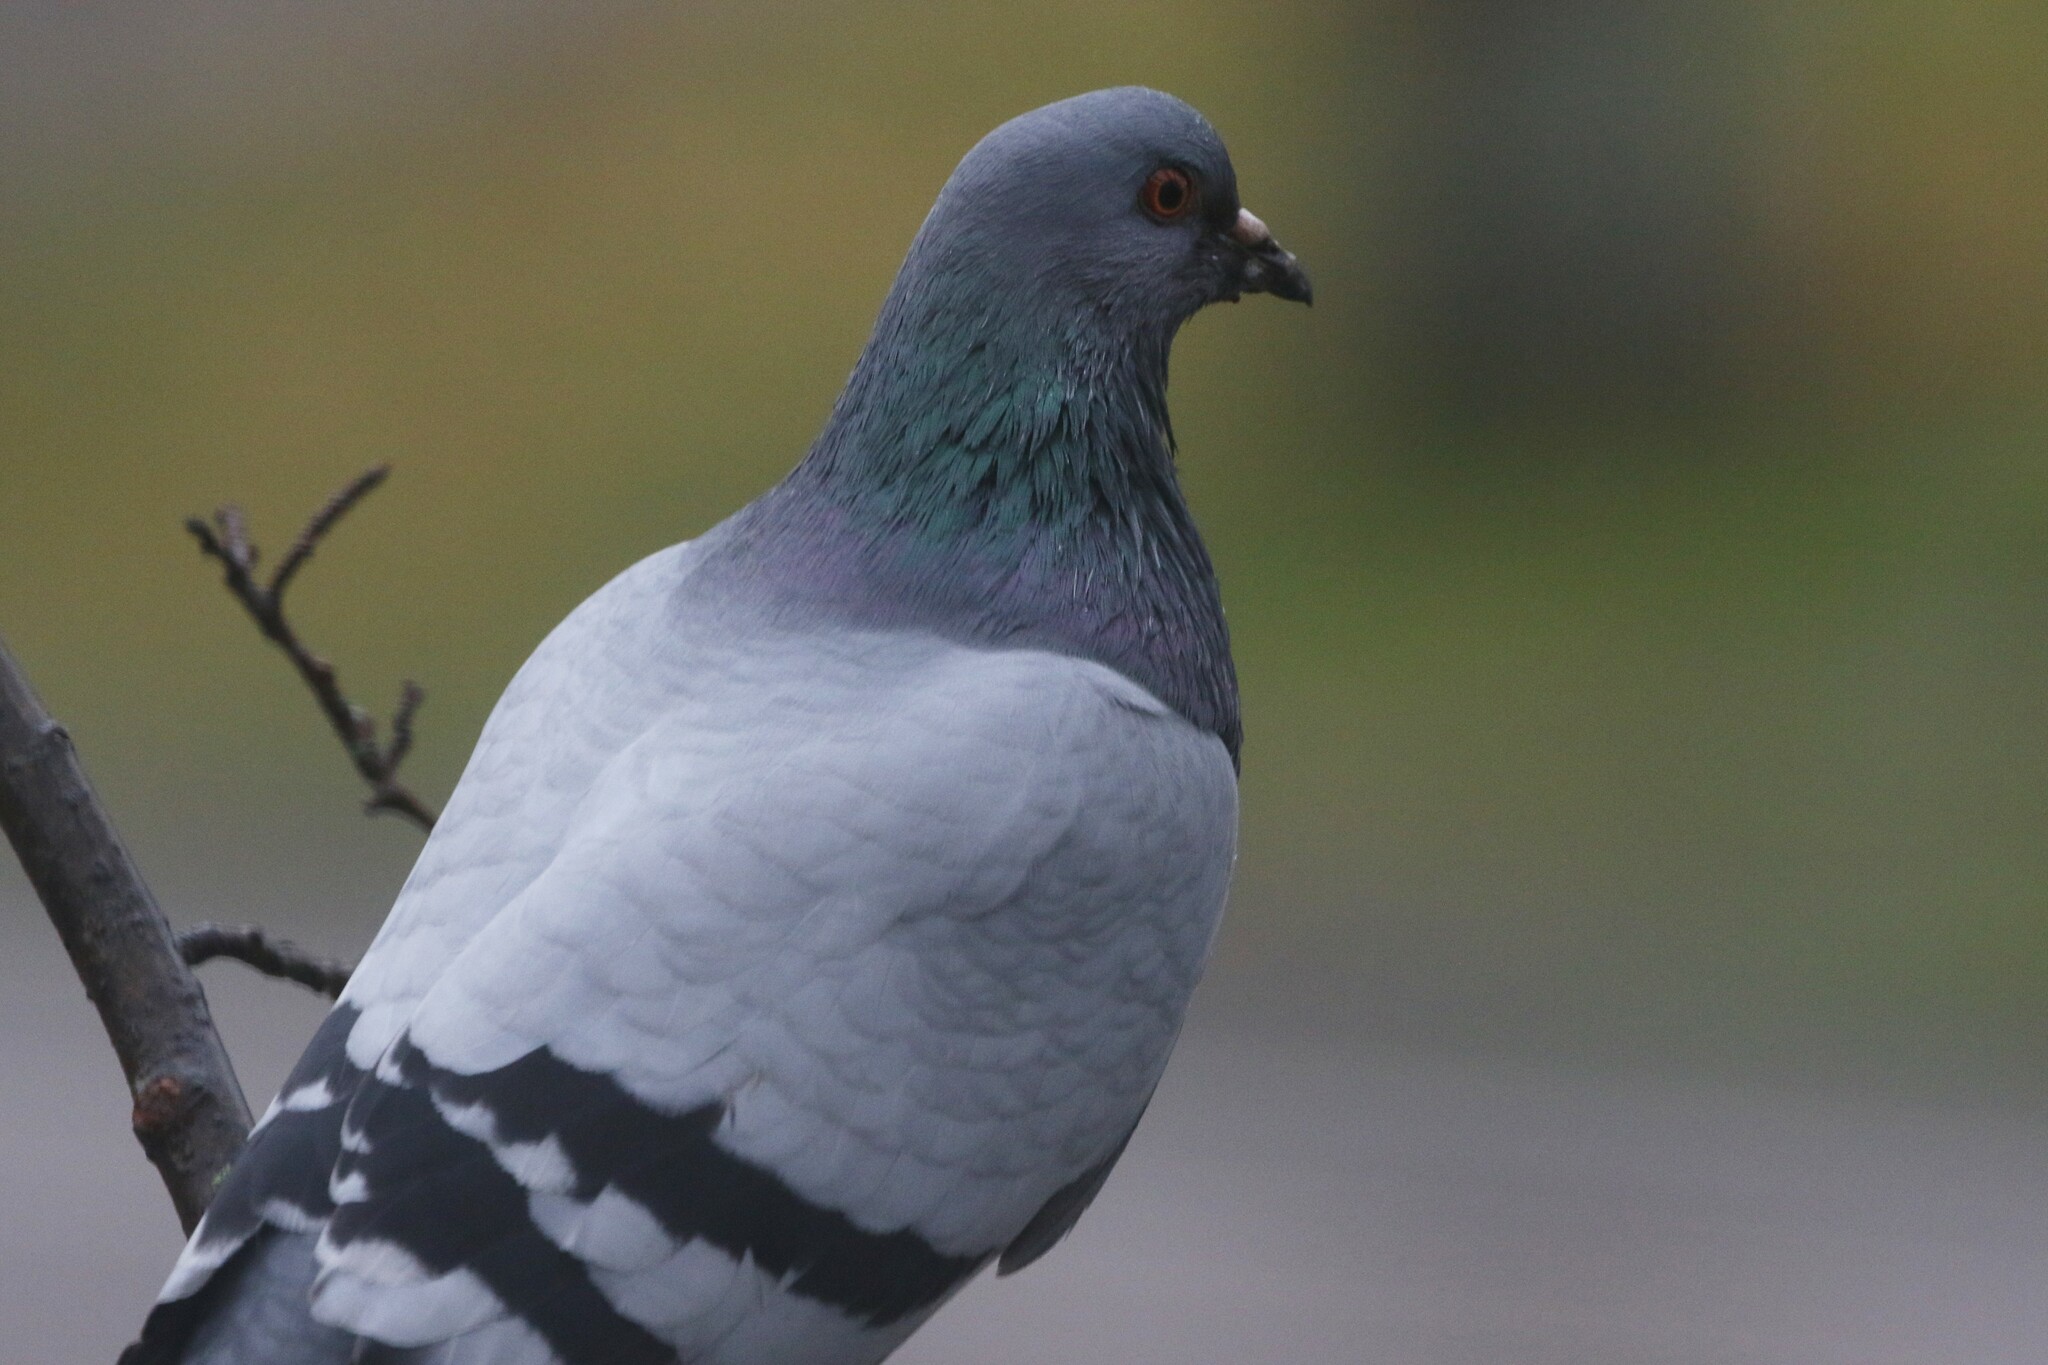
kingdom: Animalia
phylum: Chordata
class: Aves
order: Columbiformes
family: Columbidae
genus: Columba
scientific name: Columba livia
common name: Rock pigeon
